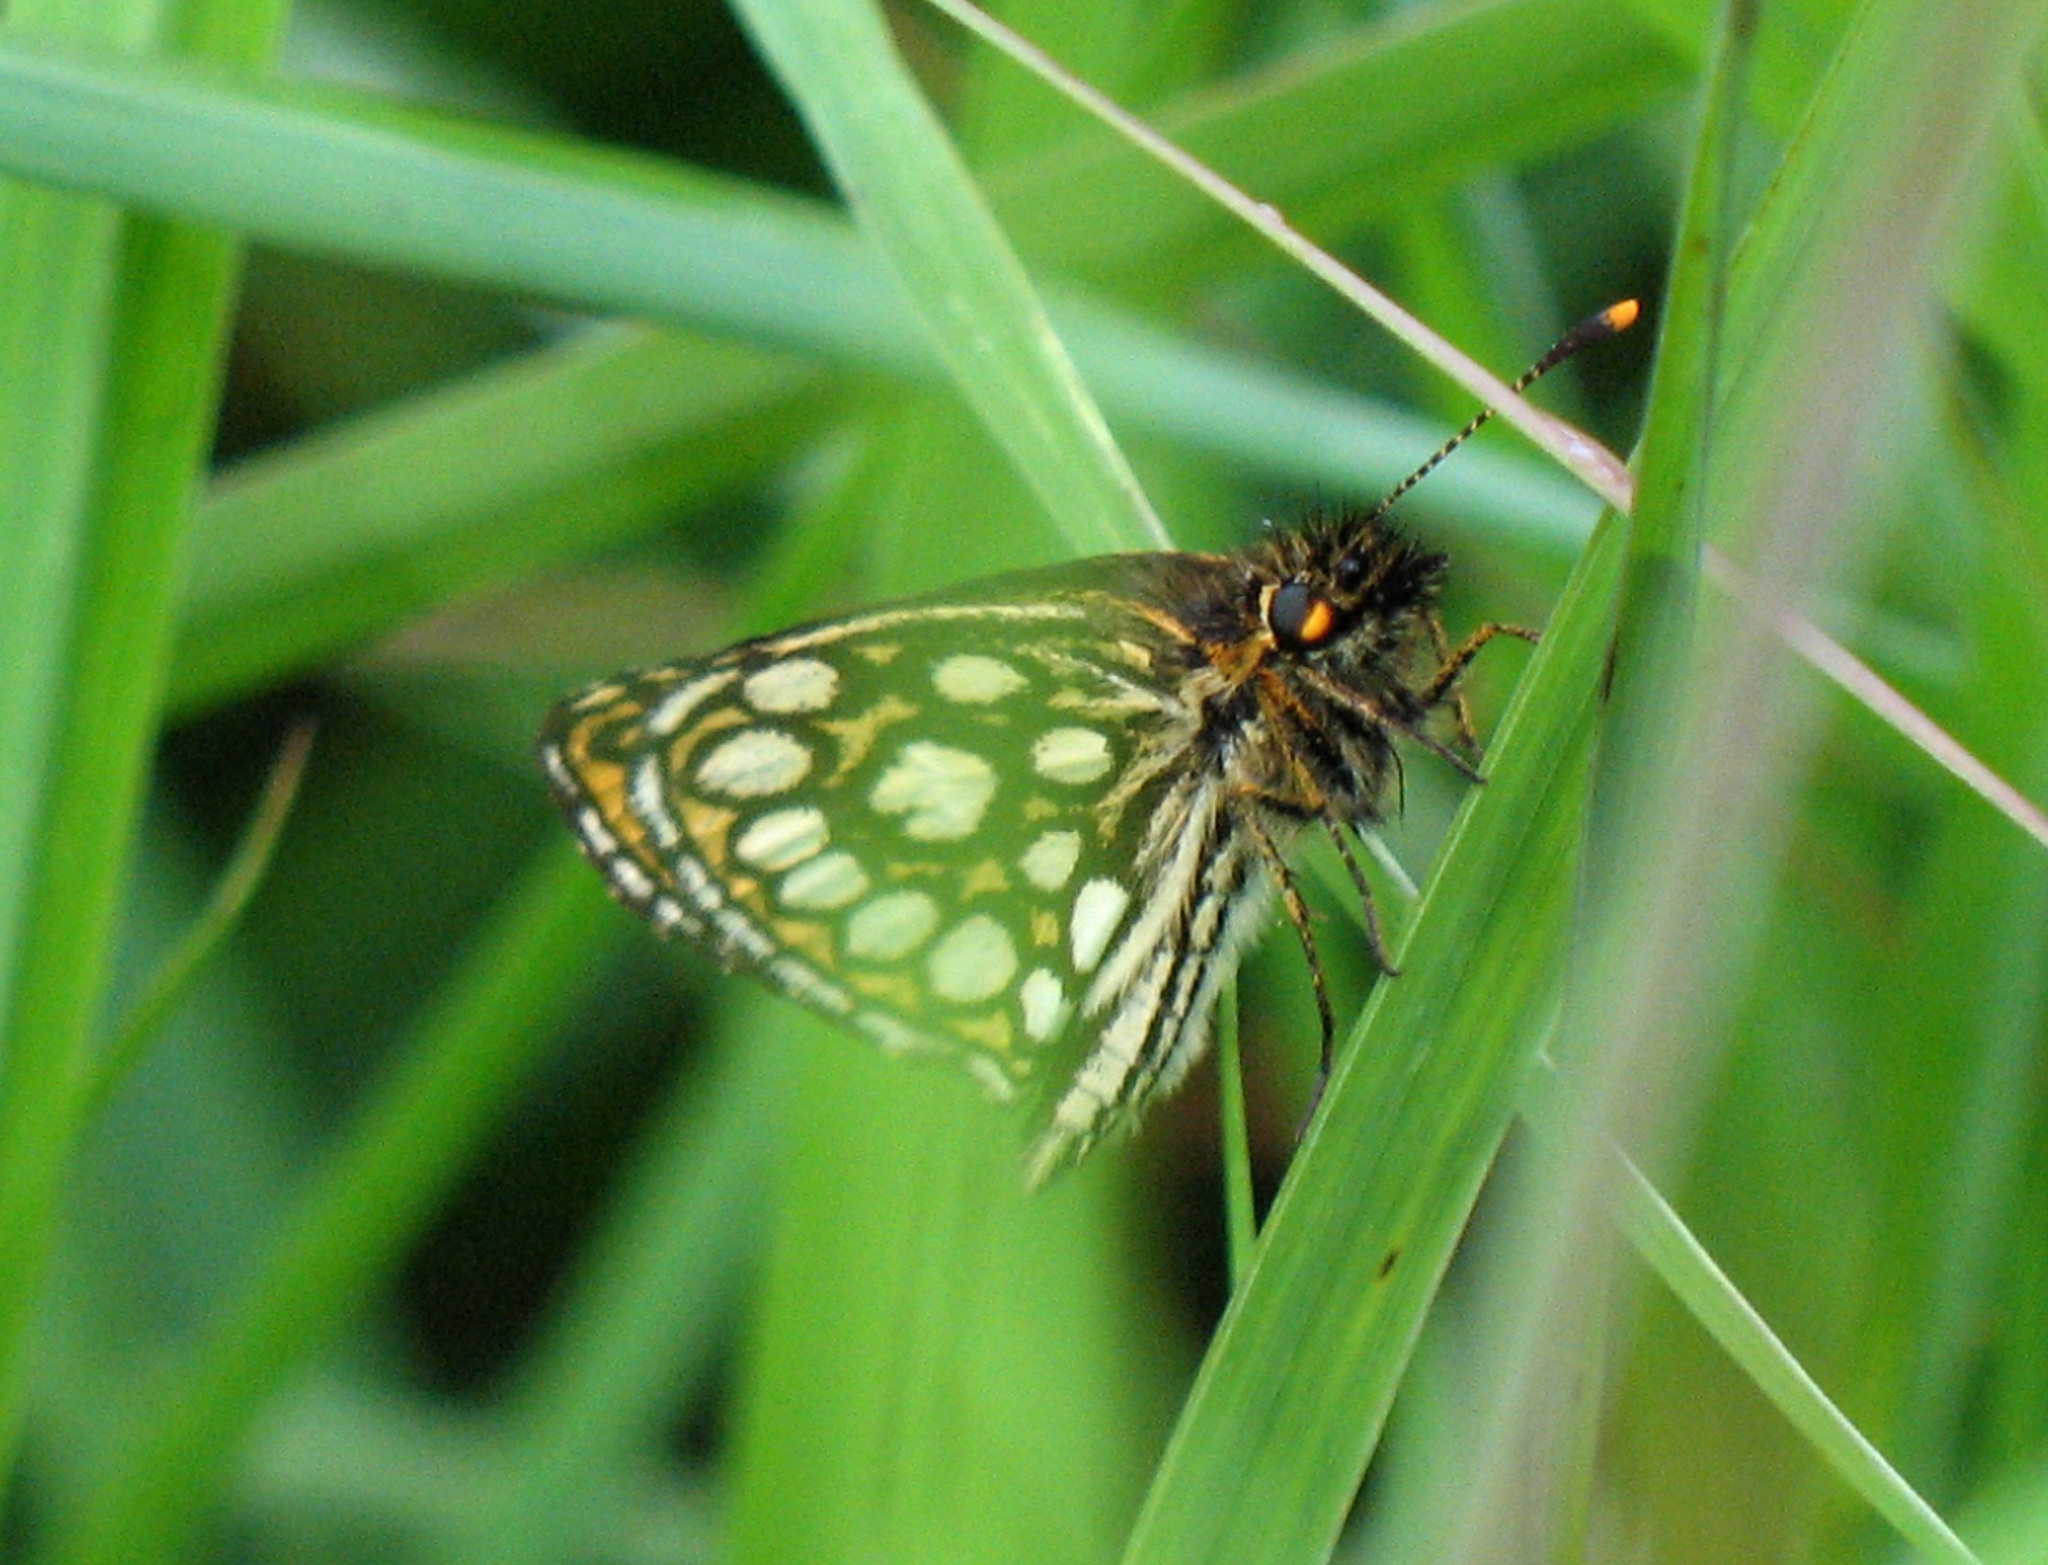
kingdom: Animalia
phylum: Arthropoda
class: Insecta
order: Lepidoptera
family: Hesperiidae
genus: Heteropterus
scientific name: Heteropterus morpheus
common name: Large chequered skipper
